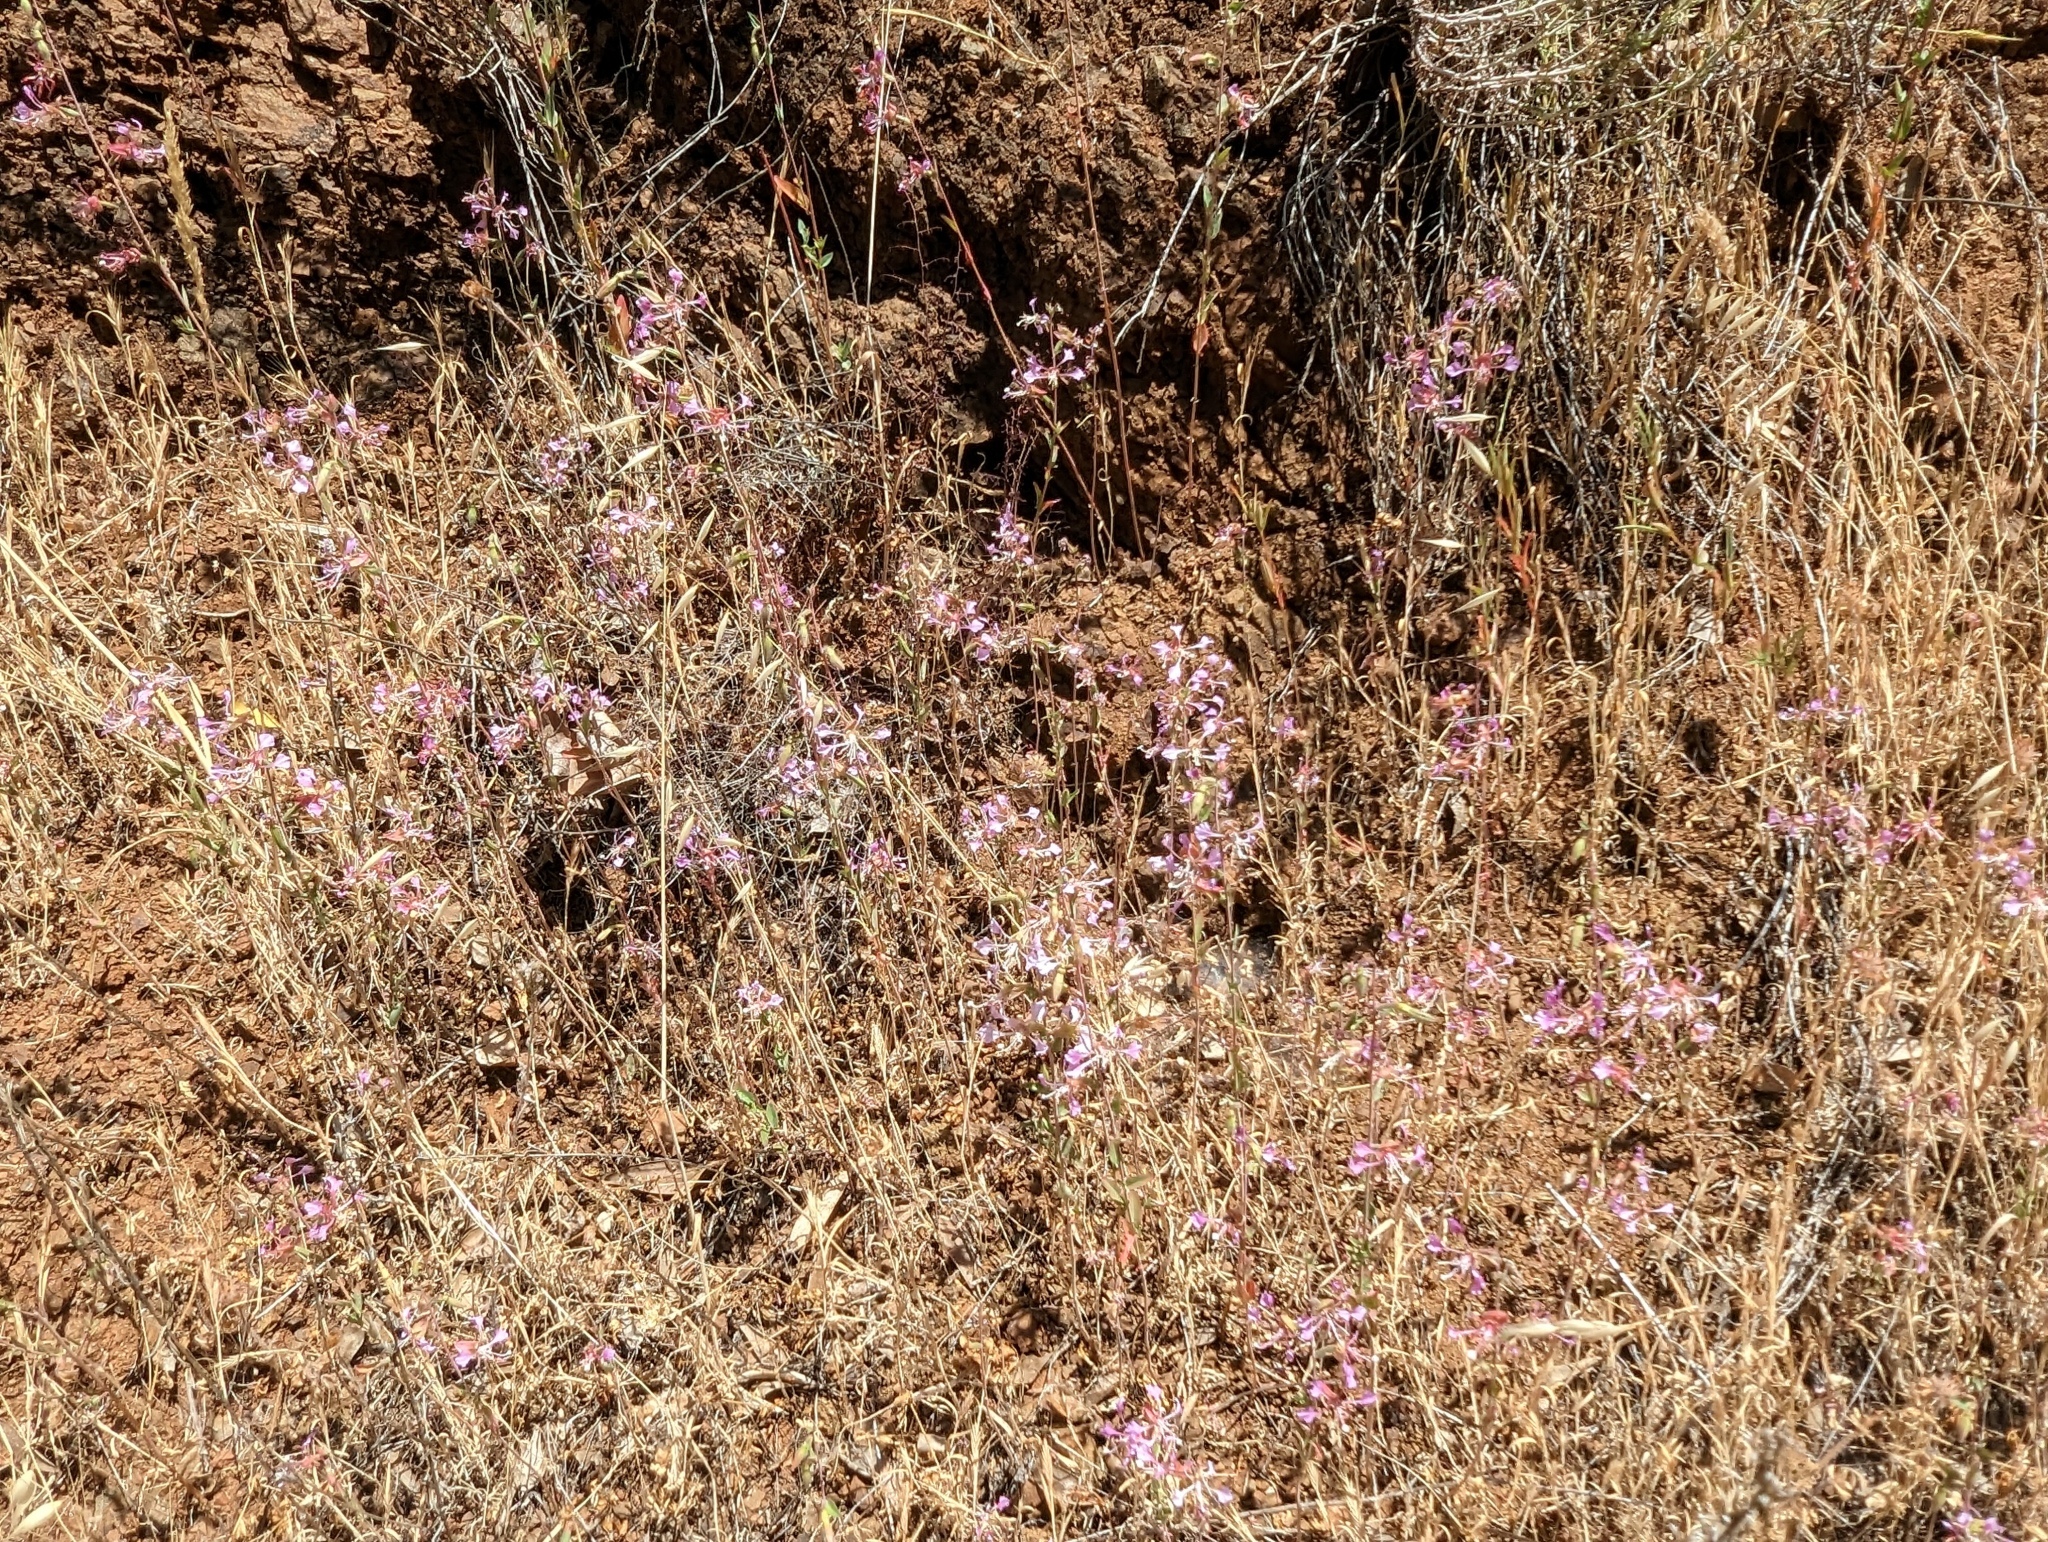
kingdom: Plantae
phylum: Tracheophyta
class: Magnoliopsida
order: Myrtales
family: Onagraceae
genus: Clarkia
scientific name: Clarkia unguiculata
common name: Clarkia
